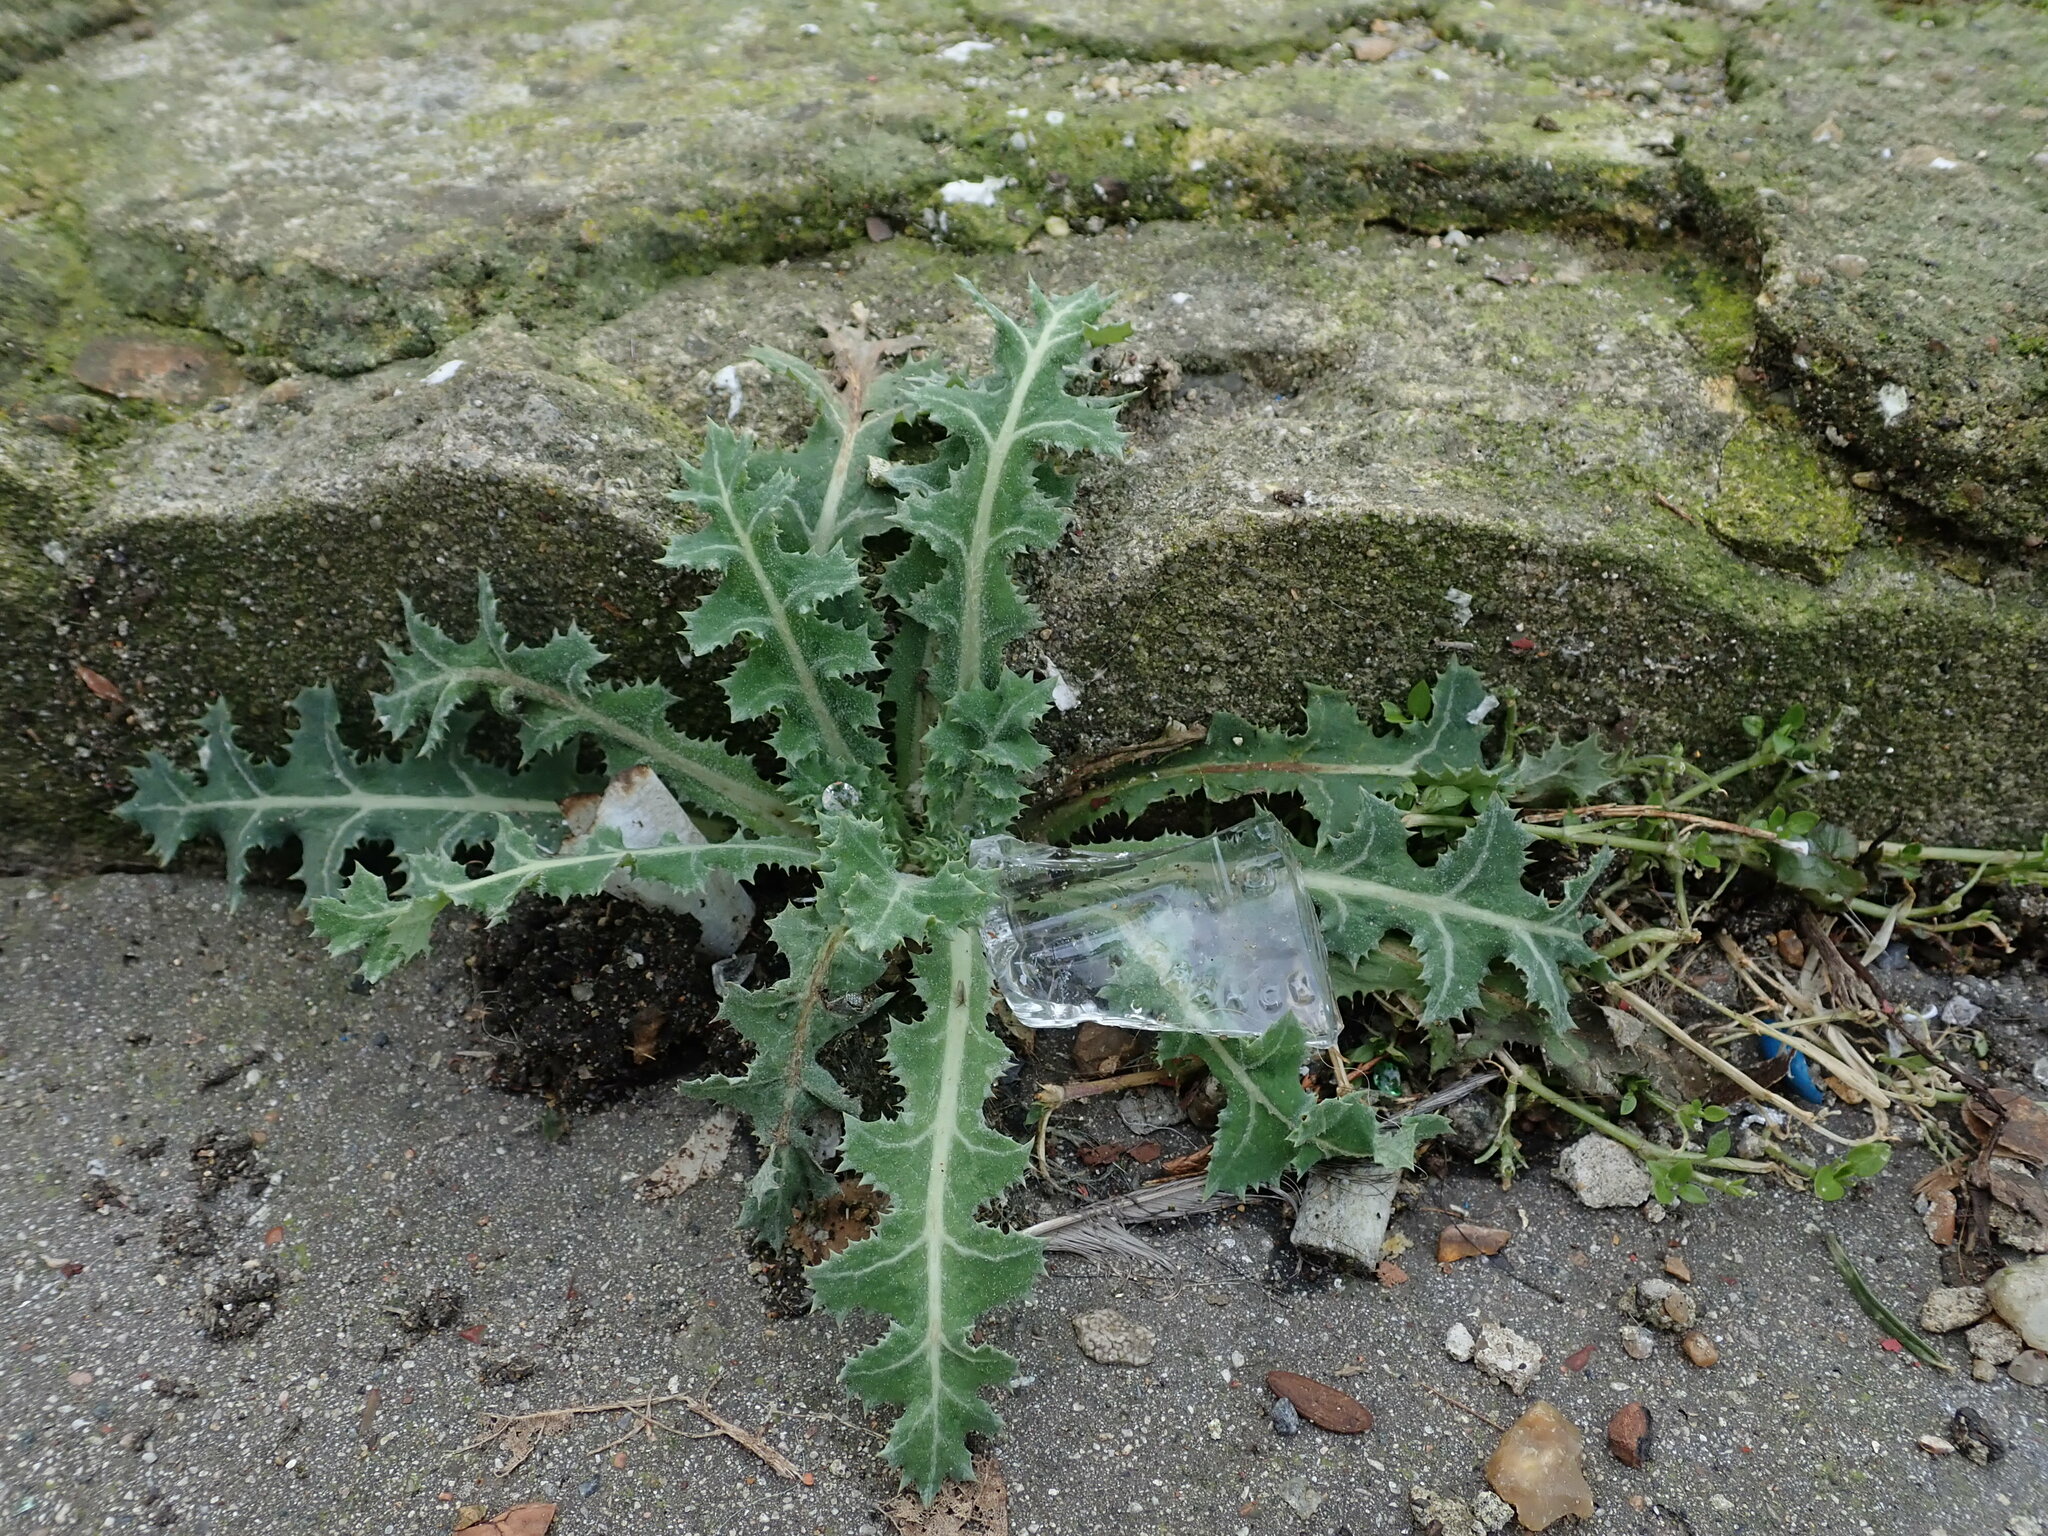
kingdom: Plantae
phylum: Tracheophyta
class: Magnoliopsida
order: Asterales
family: Asteraceae
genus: Sonchus
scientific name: Sonchus asper
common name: Prickly sow-thistle
